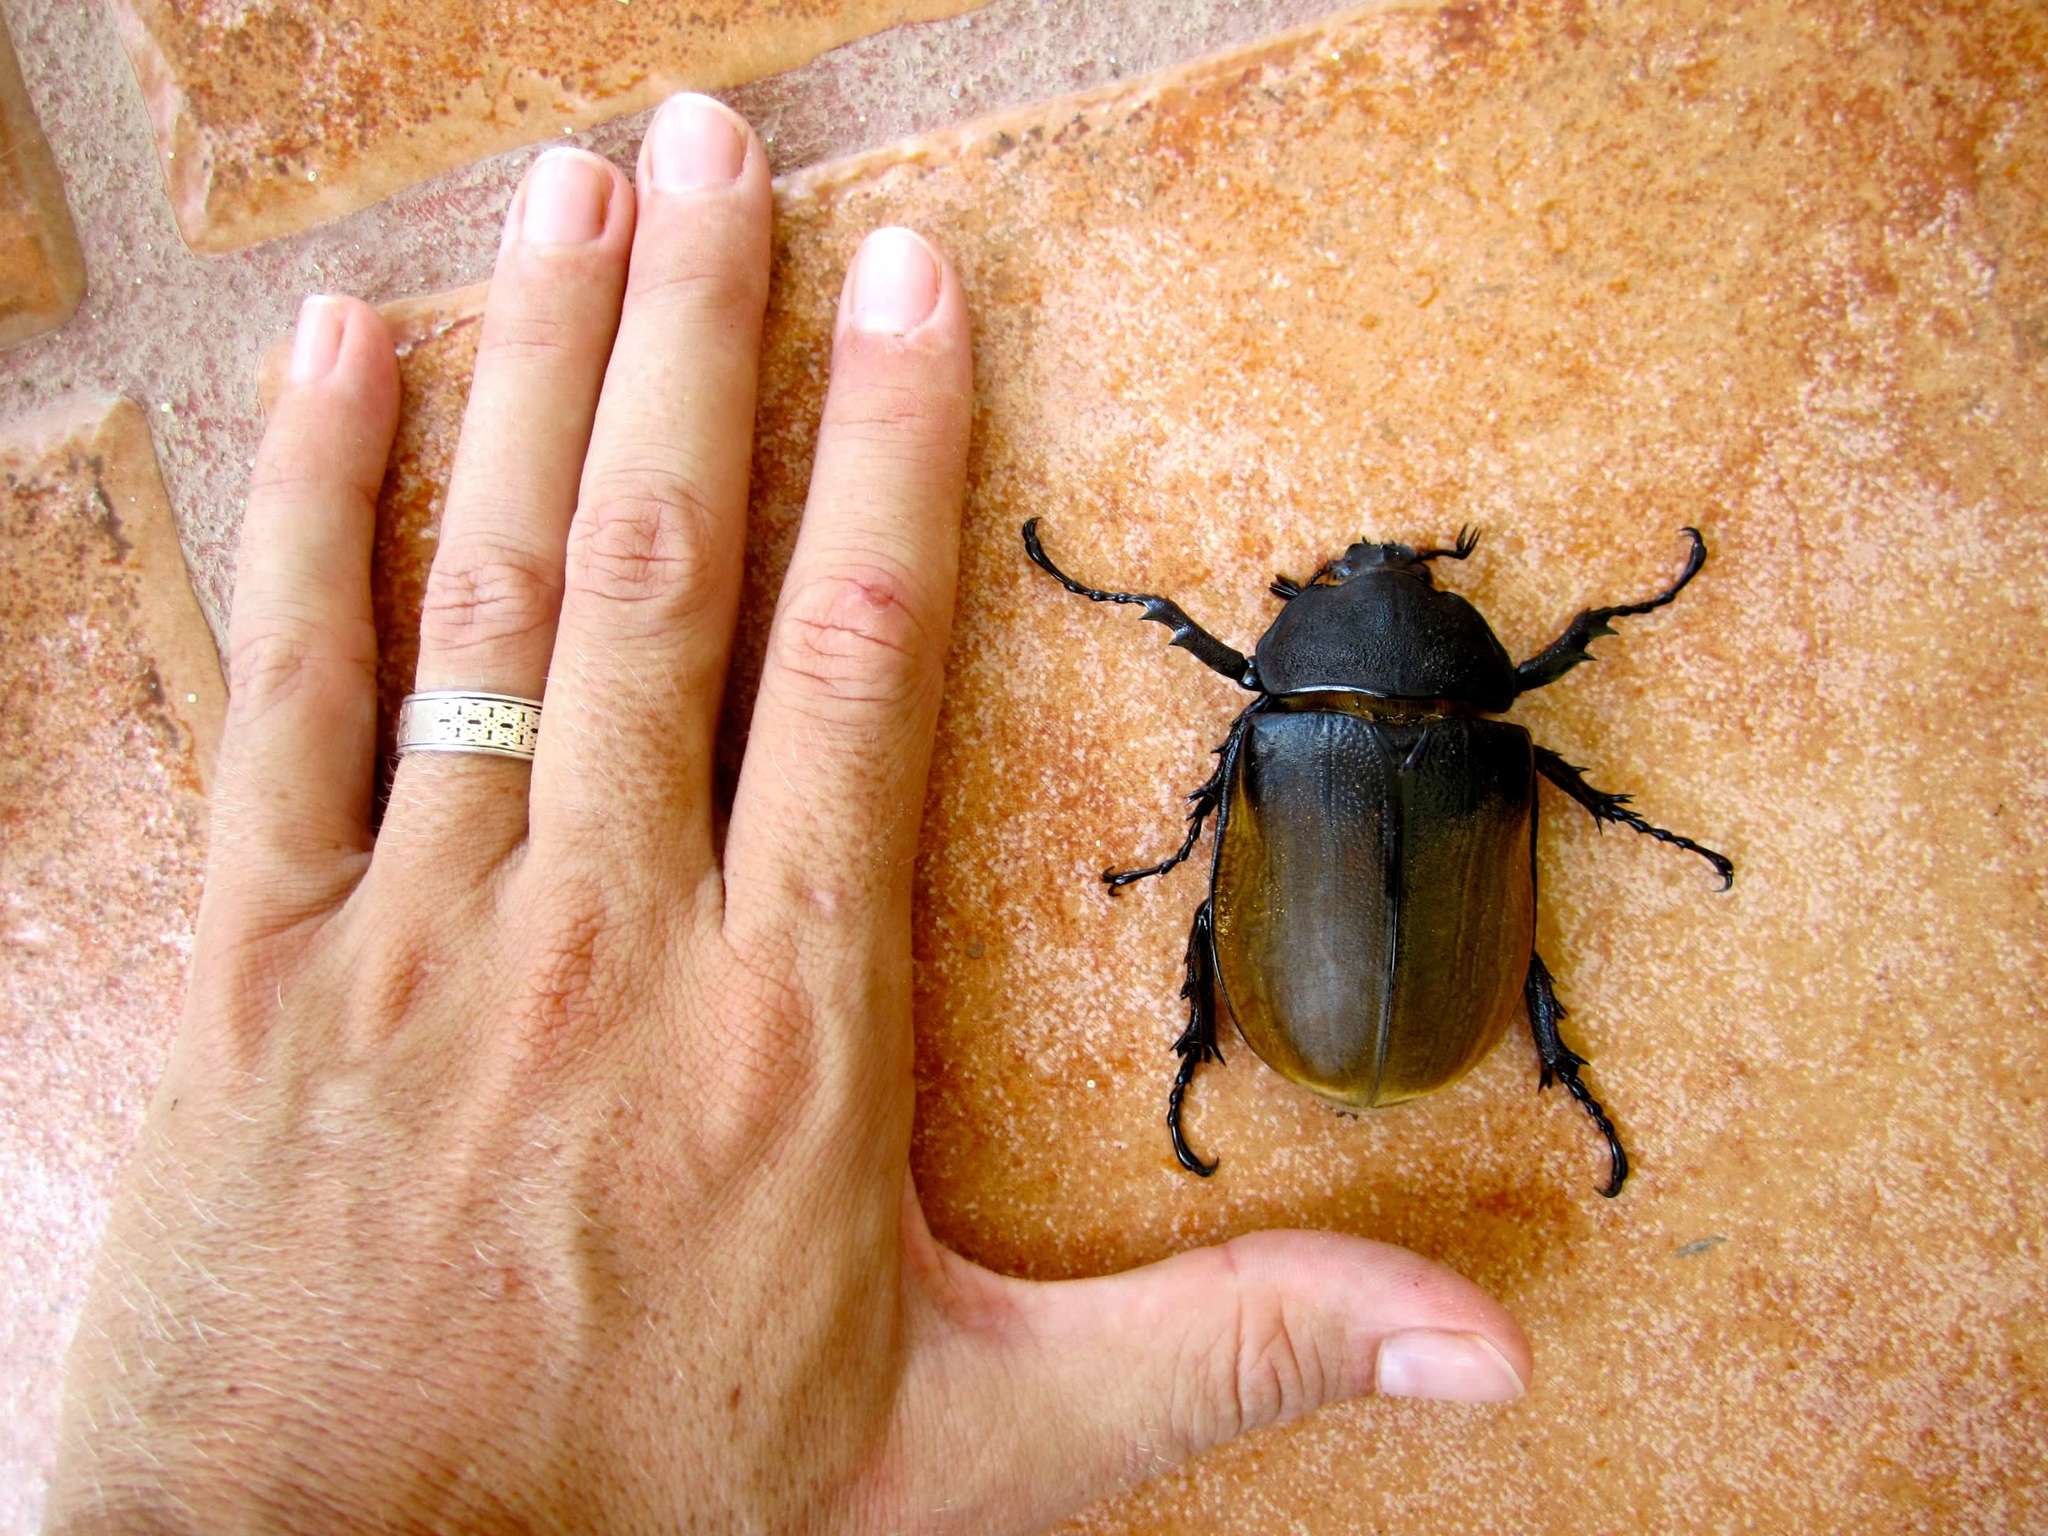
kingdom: Animalia
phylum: Arthropoda
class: Insecta
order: Coleoptera
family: Scarabaeidae
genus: Megasoma
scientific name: Megasoma elephas
